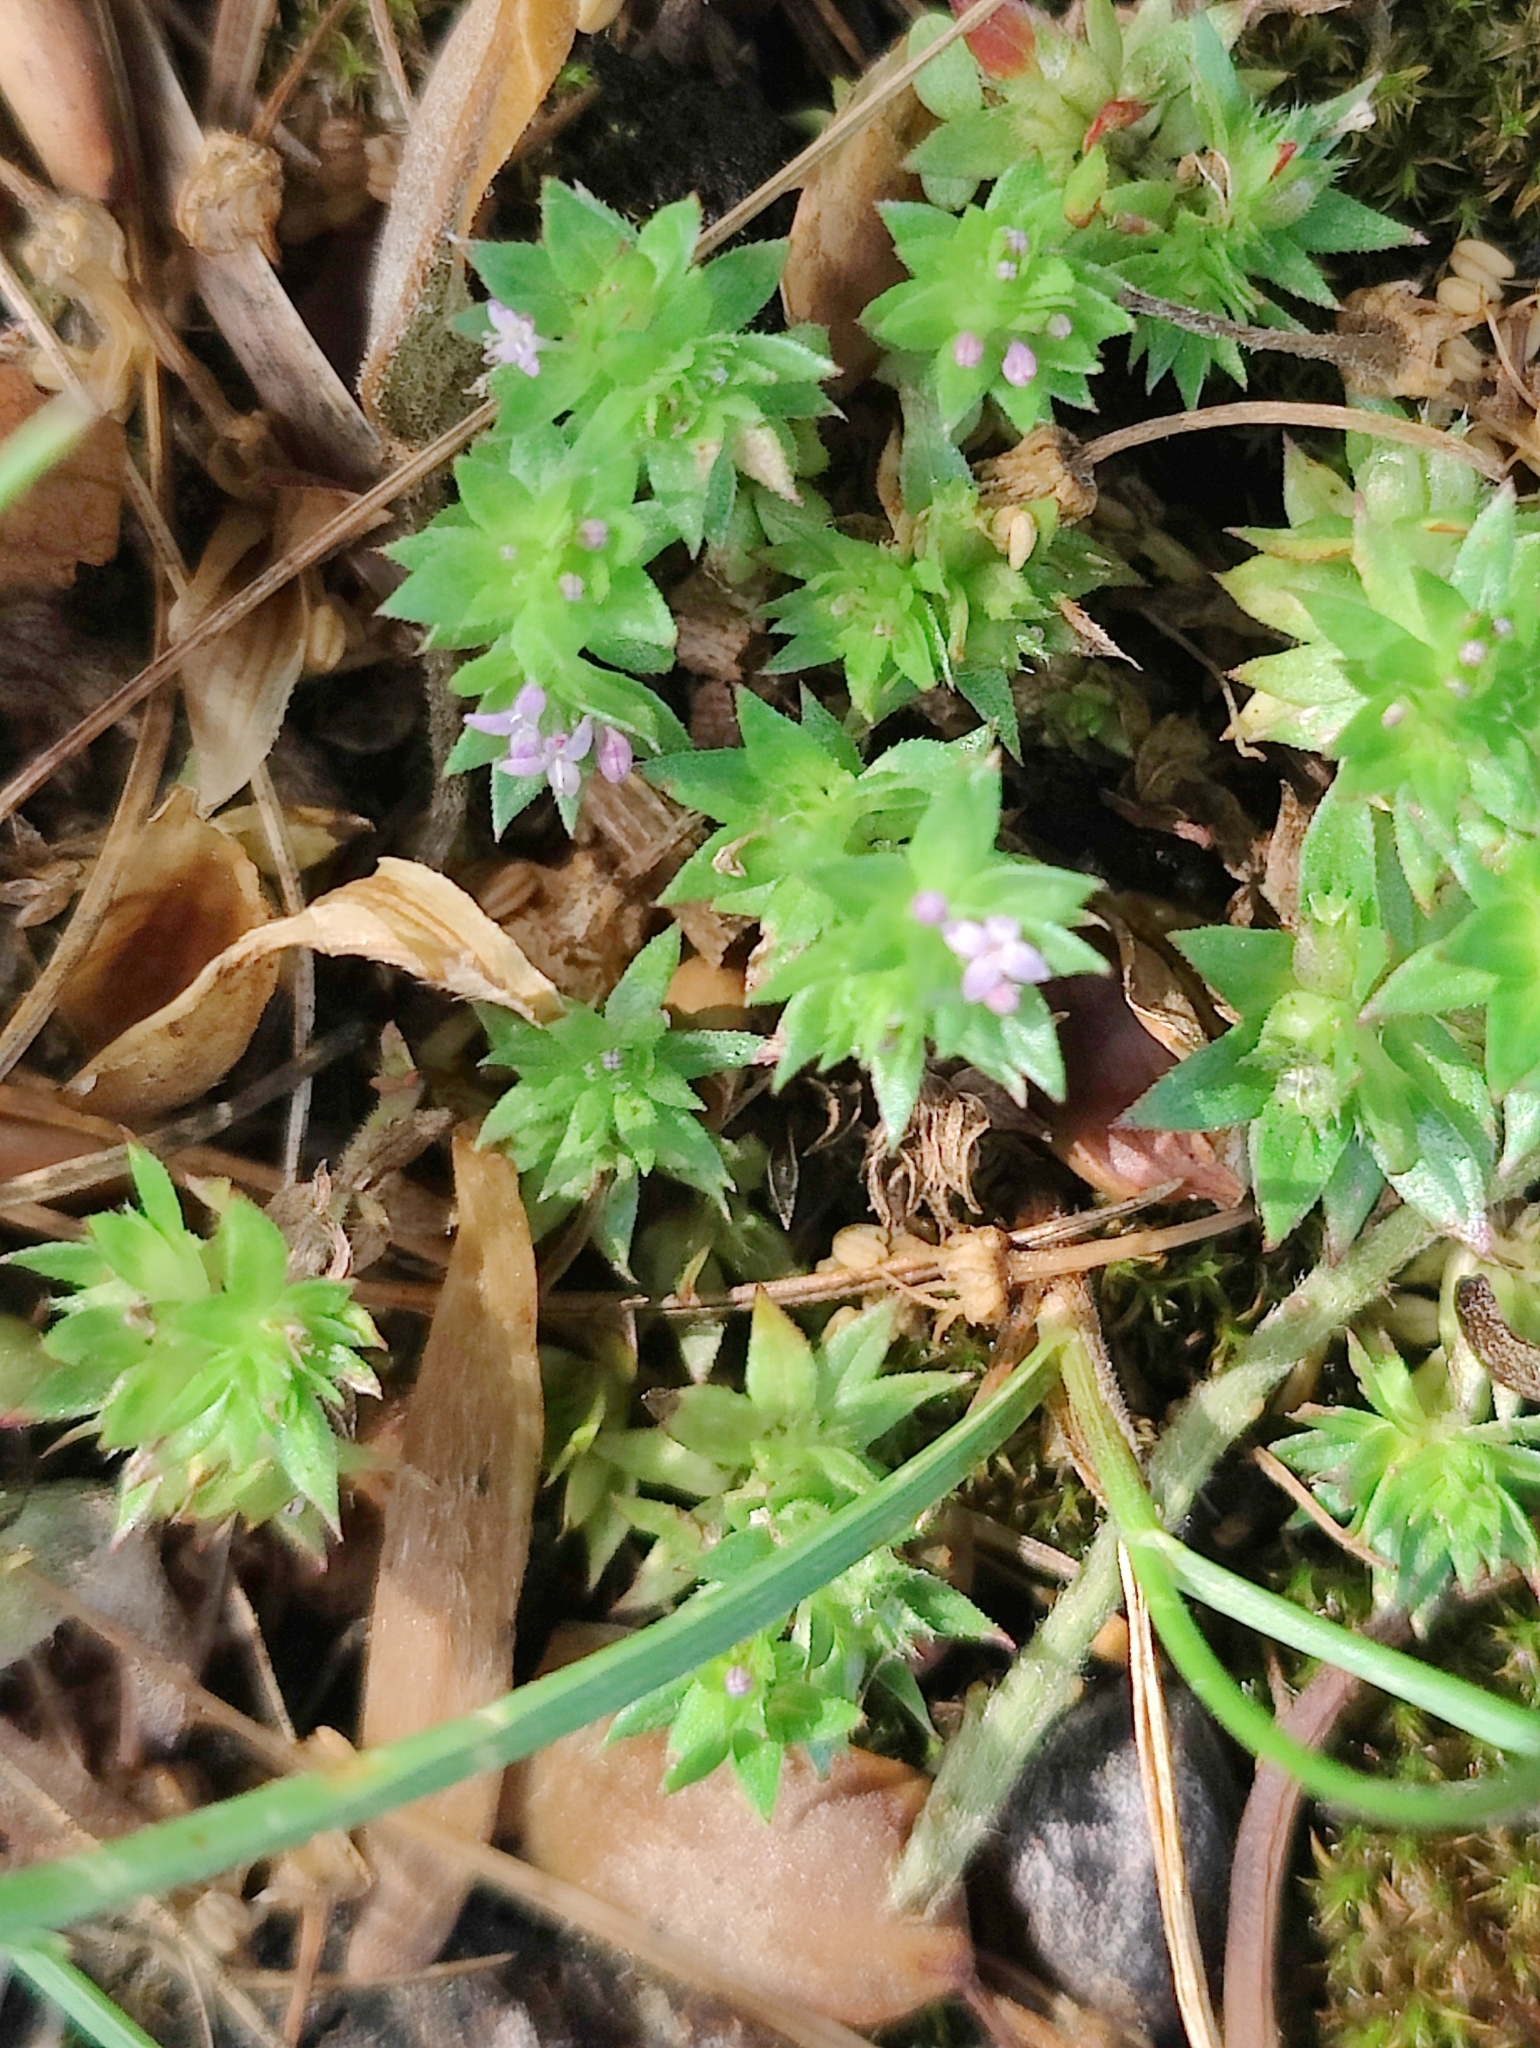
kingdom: Plantae
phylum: Tracheophyta
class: Magnoliopsida
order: Gentianales
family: Rubiaceae
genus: Sherardia
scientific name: Sherardia arvensis
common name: Field madder
